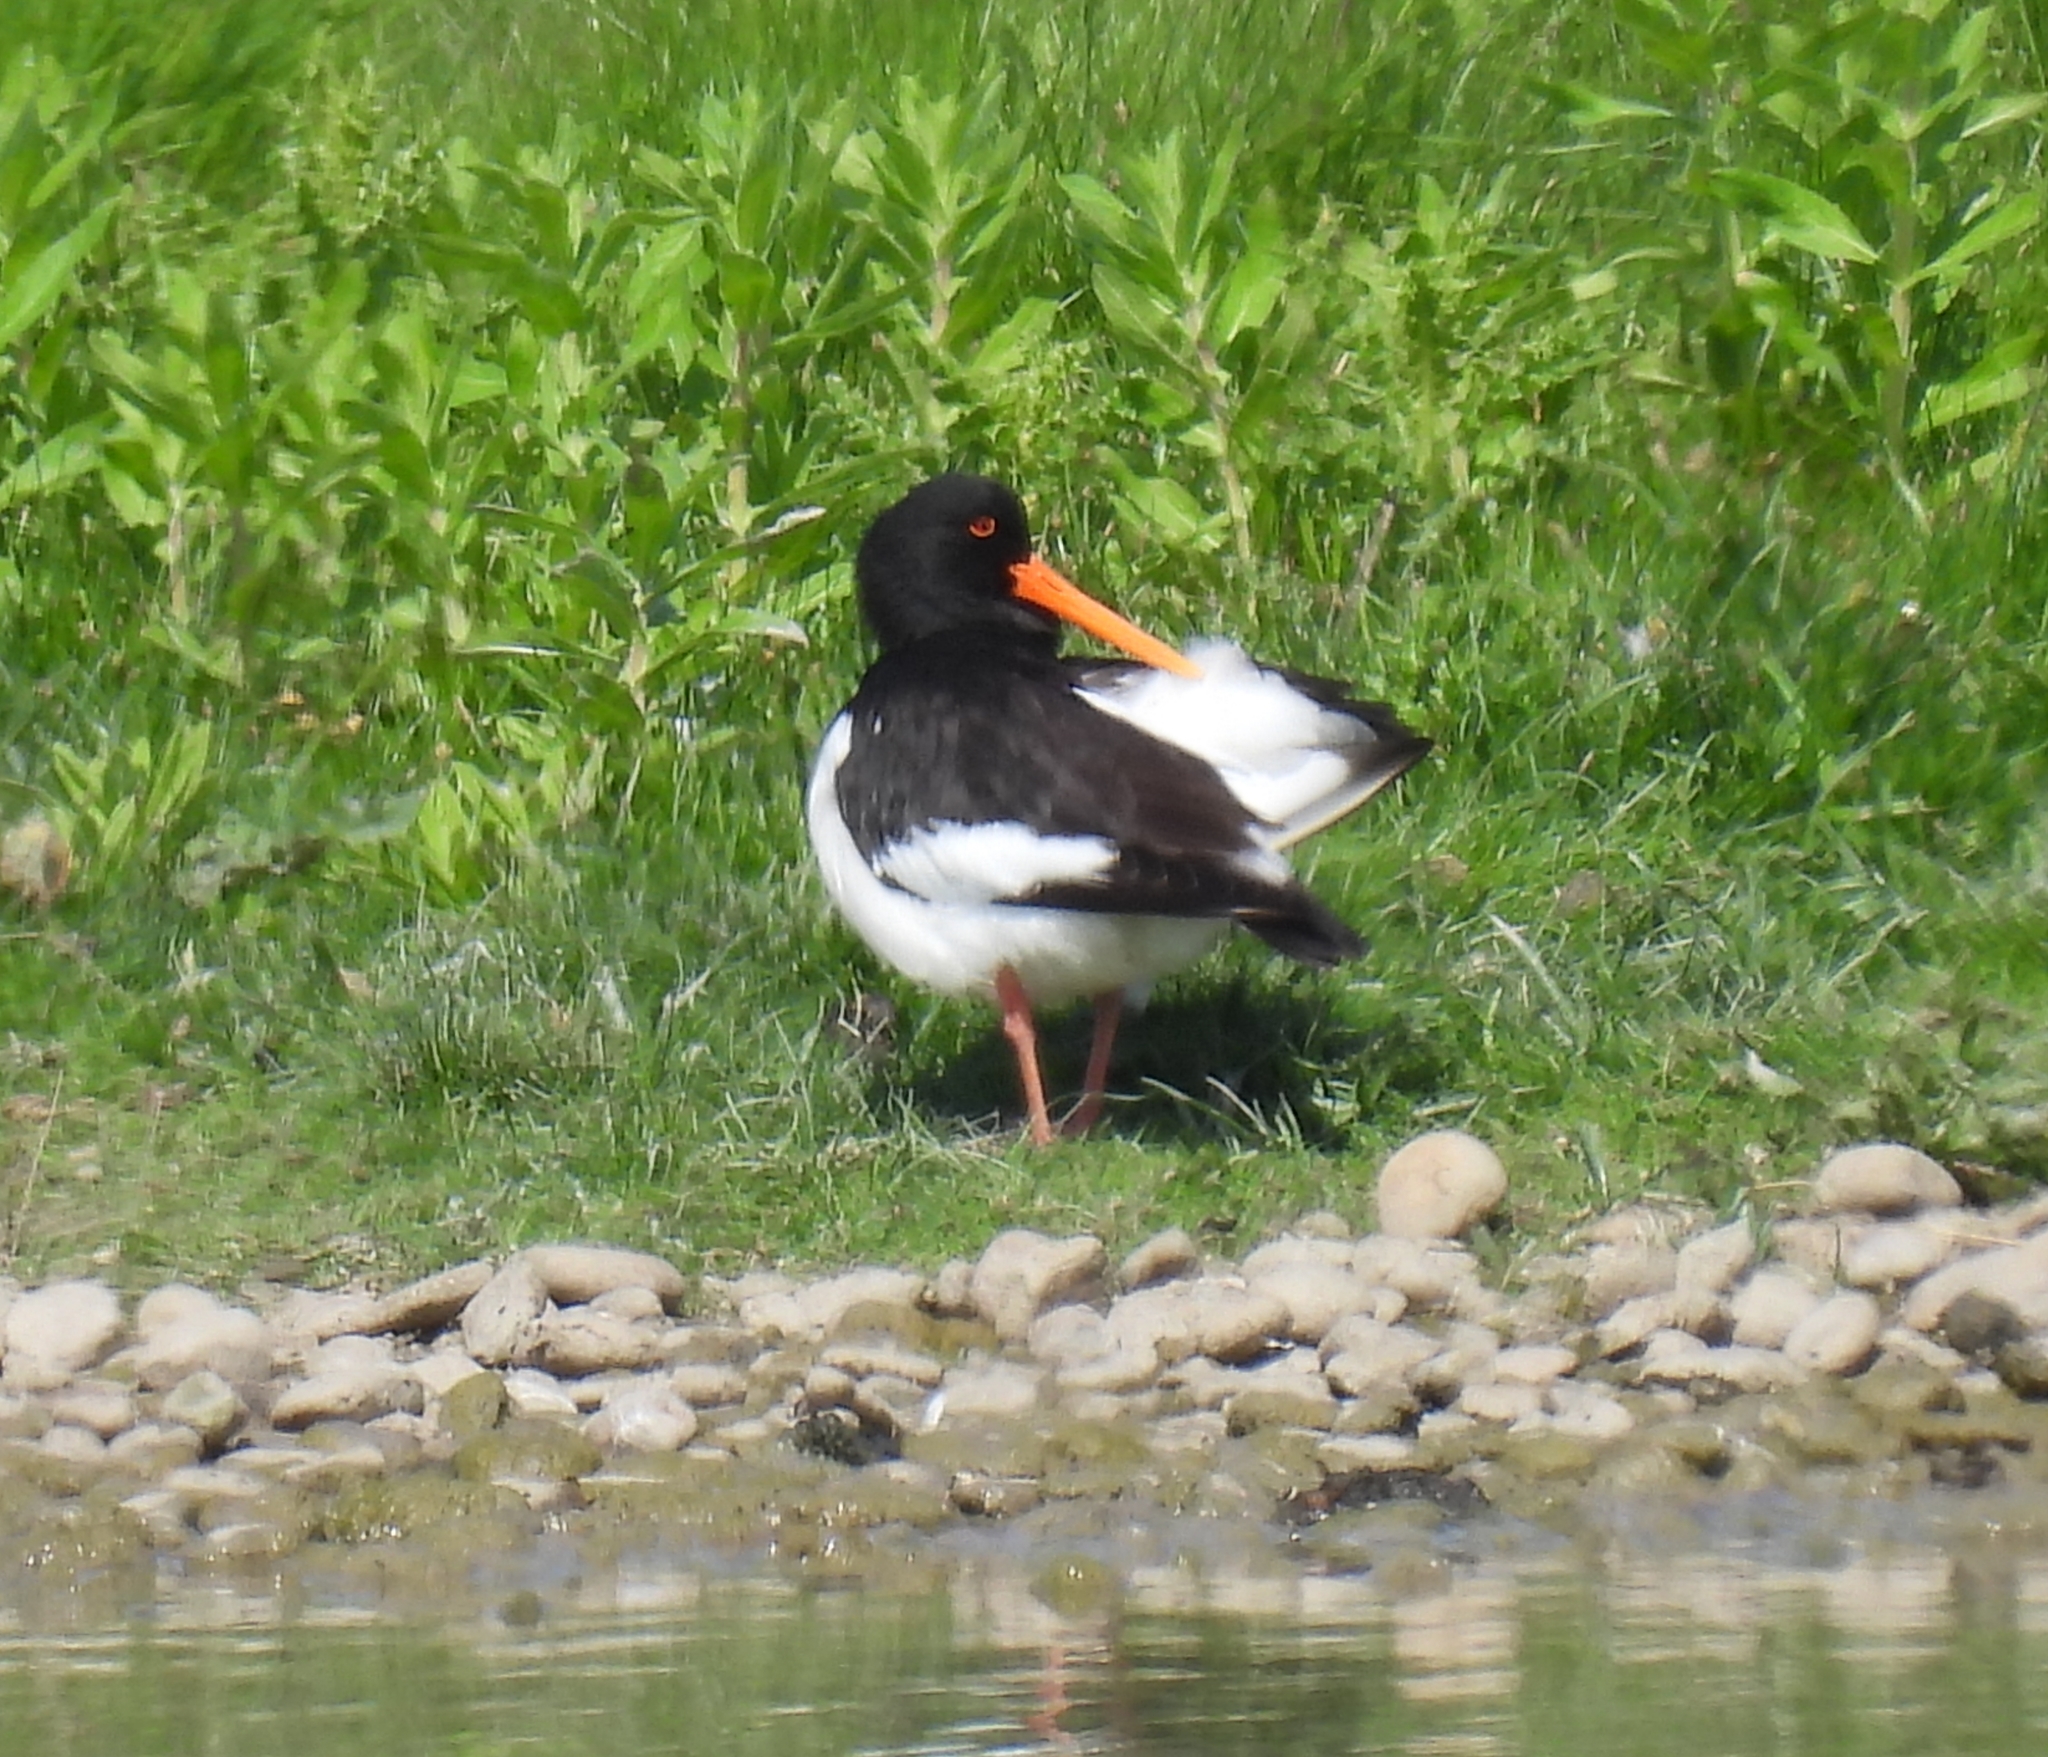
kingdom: Animalia
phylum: Chordata
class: Aves
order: Charadriiformes
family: Haematopodidae
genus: Haematopus
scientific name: Haematopus ostralegus
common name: Eurasian oystercatcher
